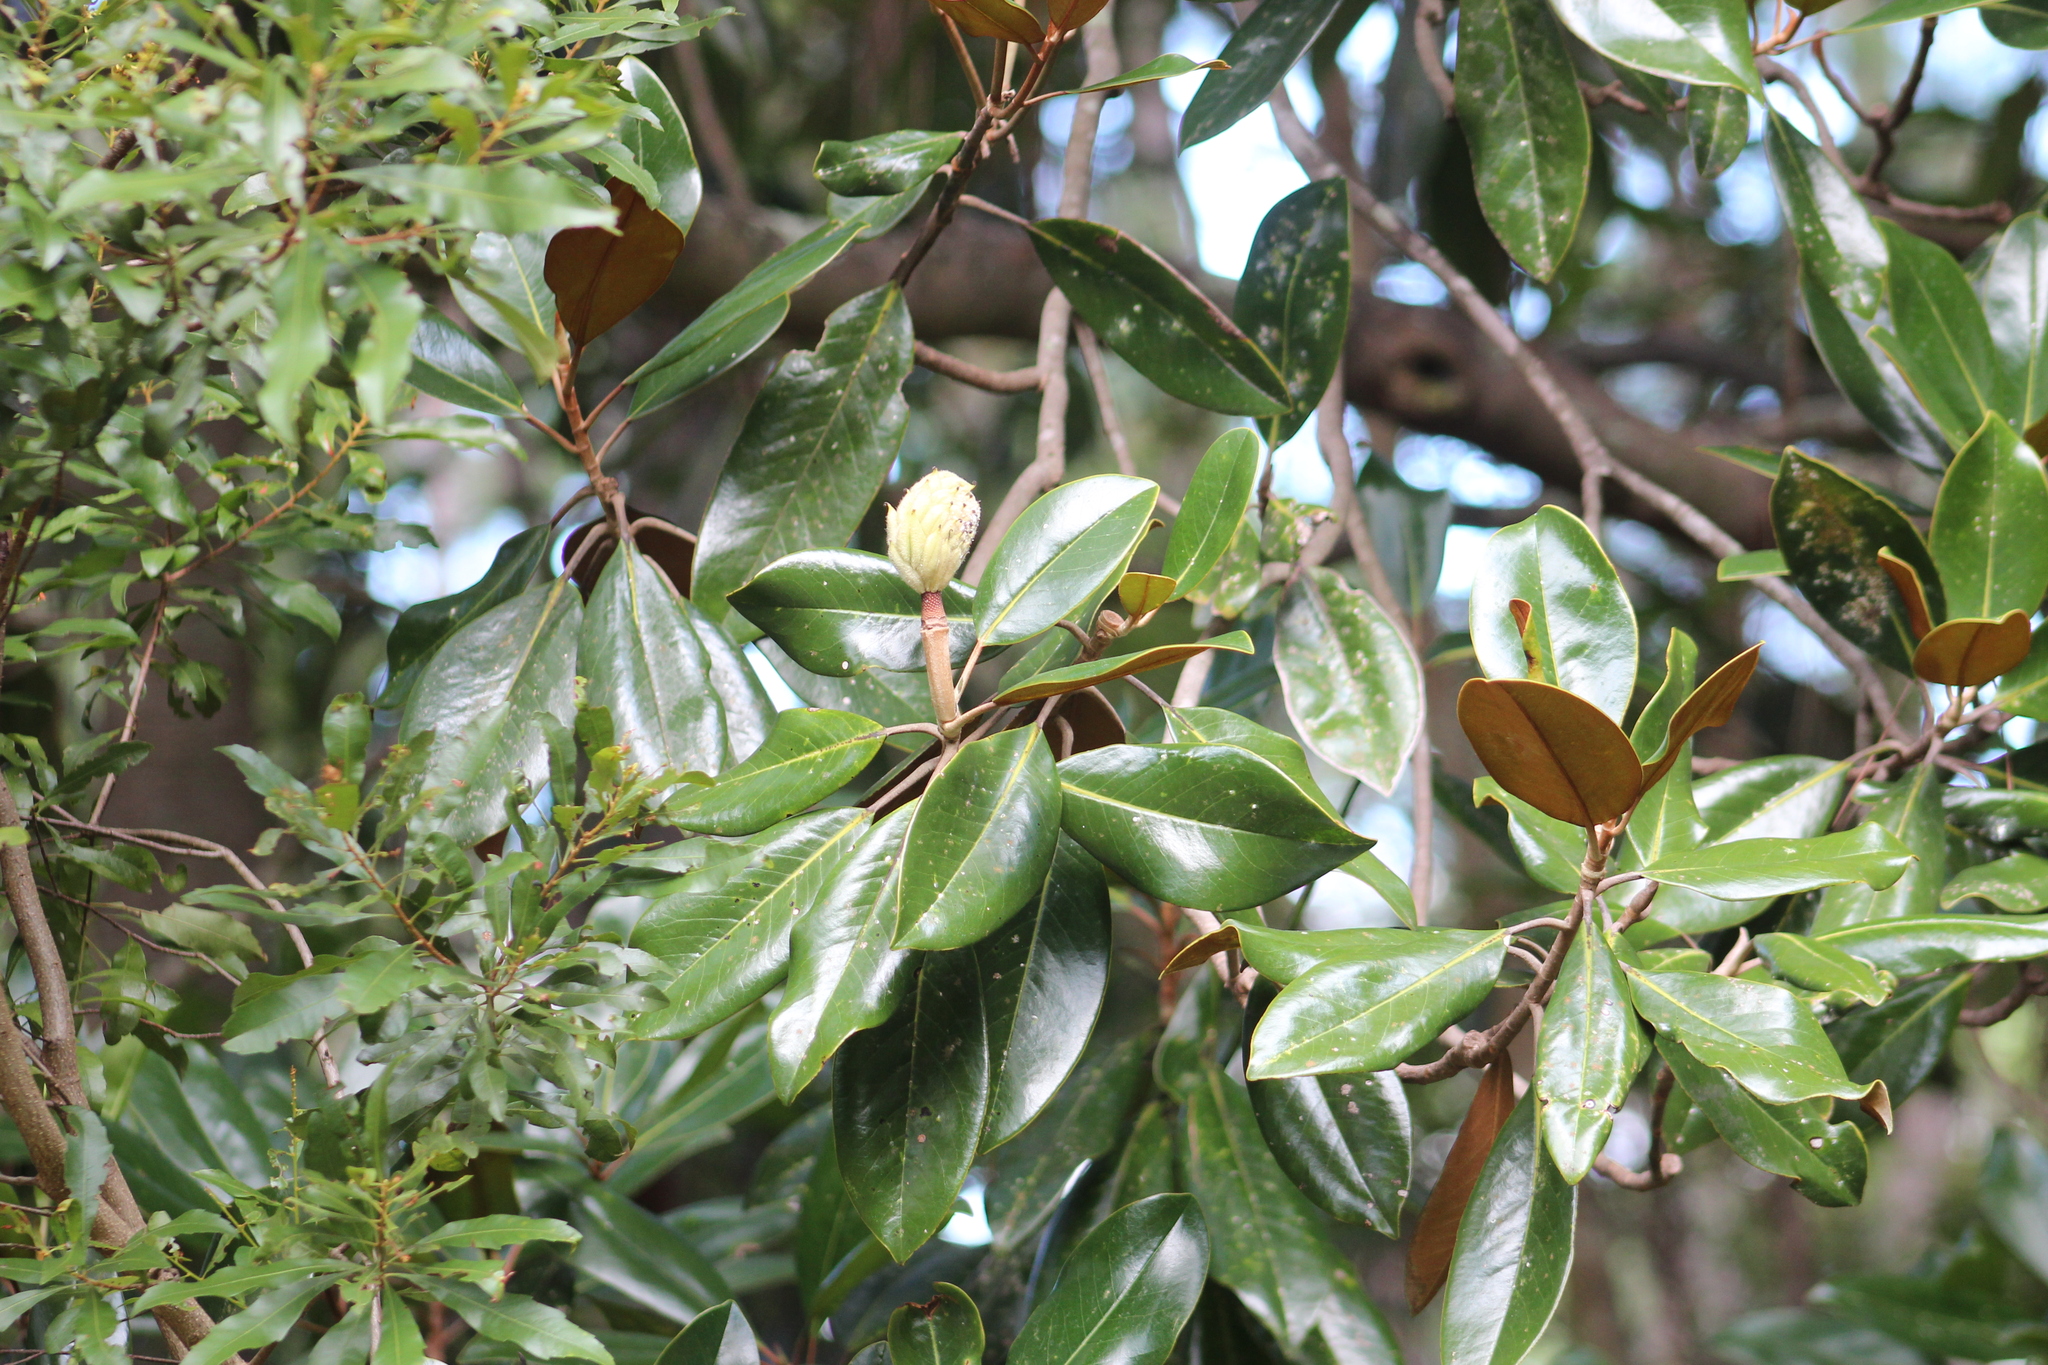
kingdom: Plantae
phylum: Tracheophyta
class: Magnoliopsida
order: Magnoliales
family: Magnoliaceae
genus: Magnolia
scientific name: Magnolia grandiflora
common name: Southern magnolia
